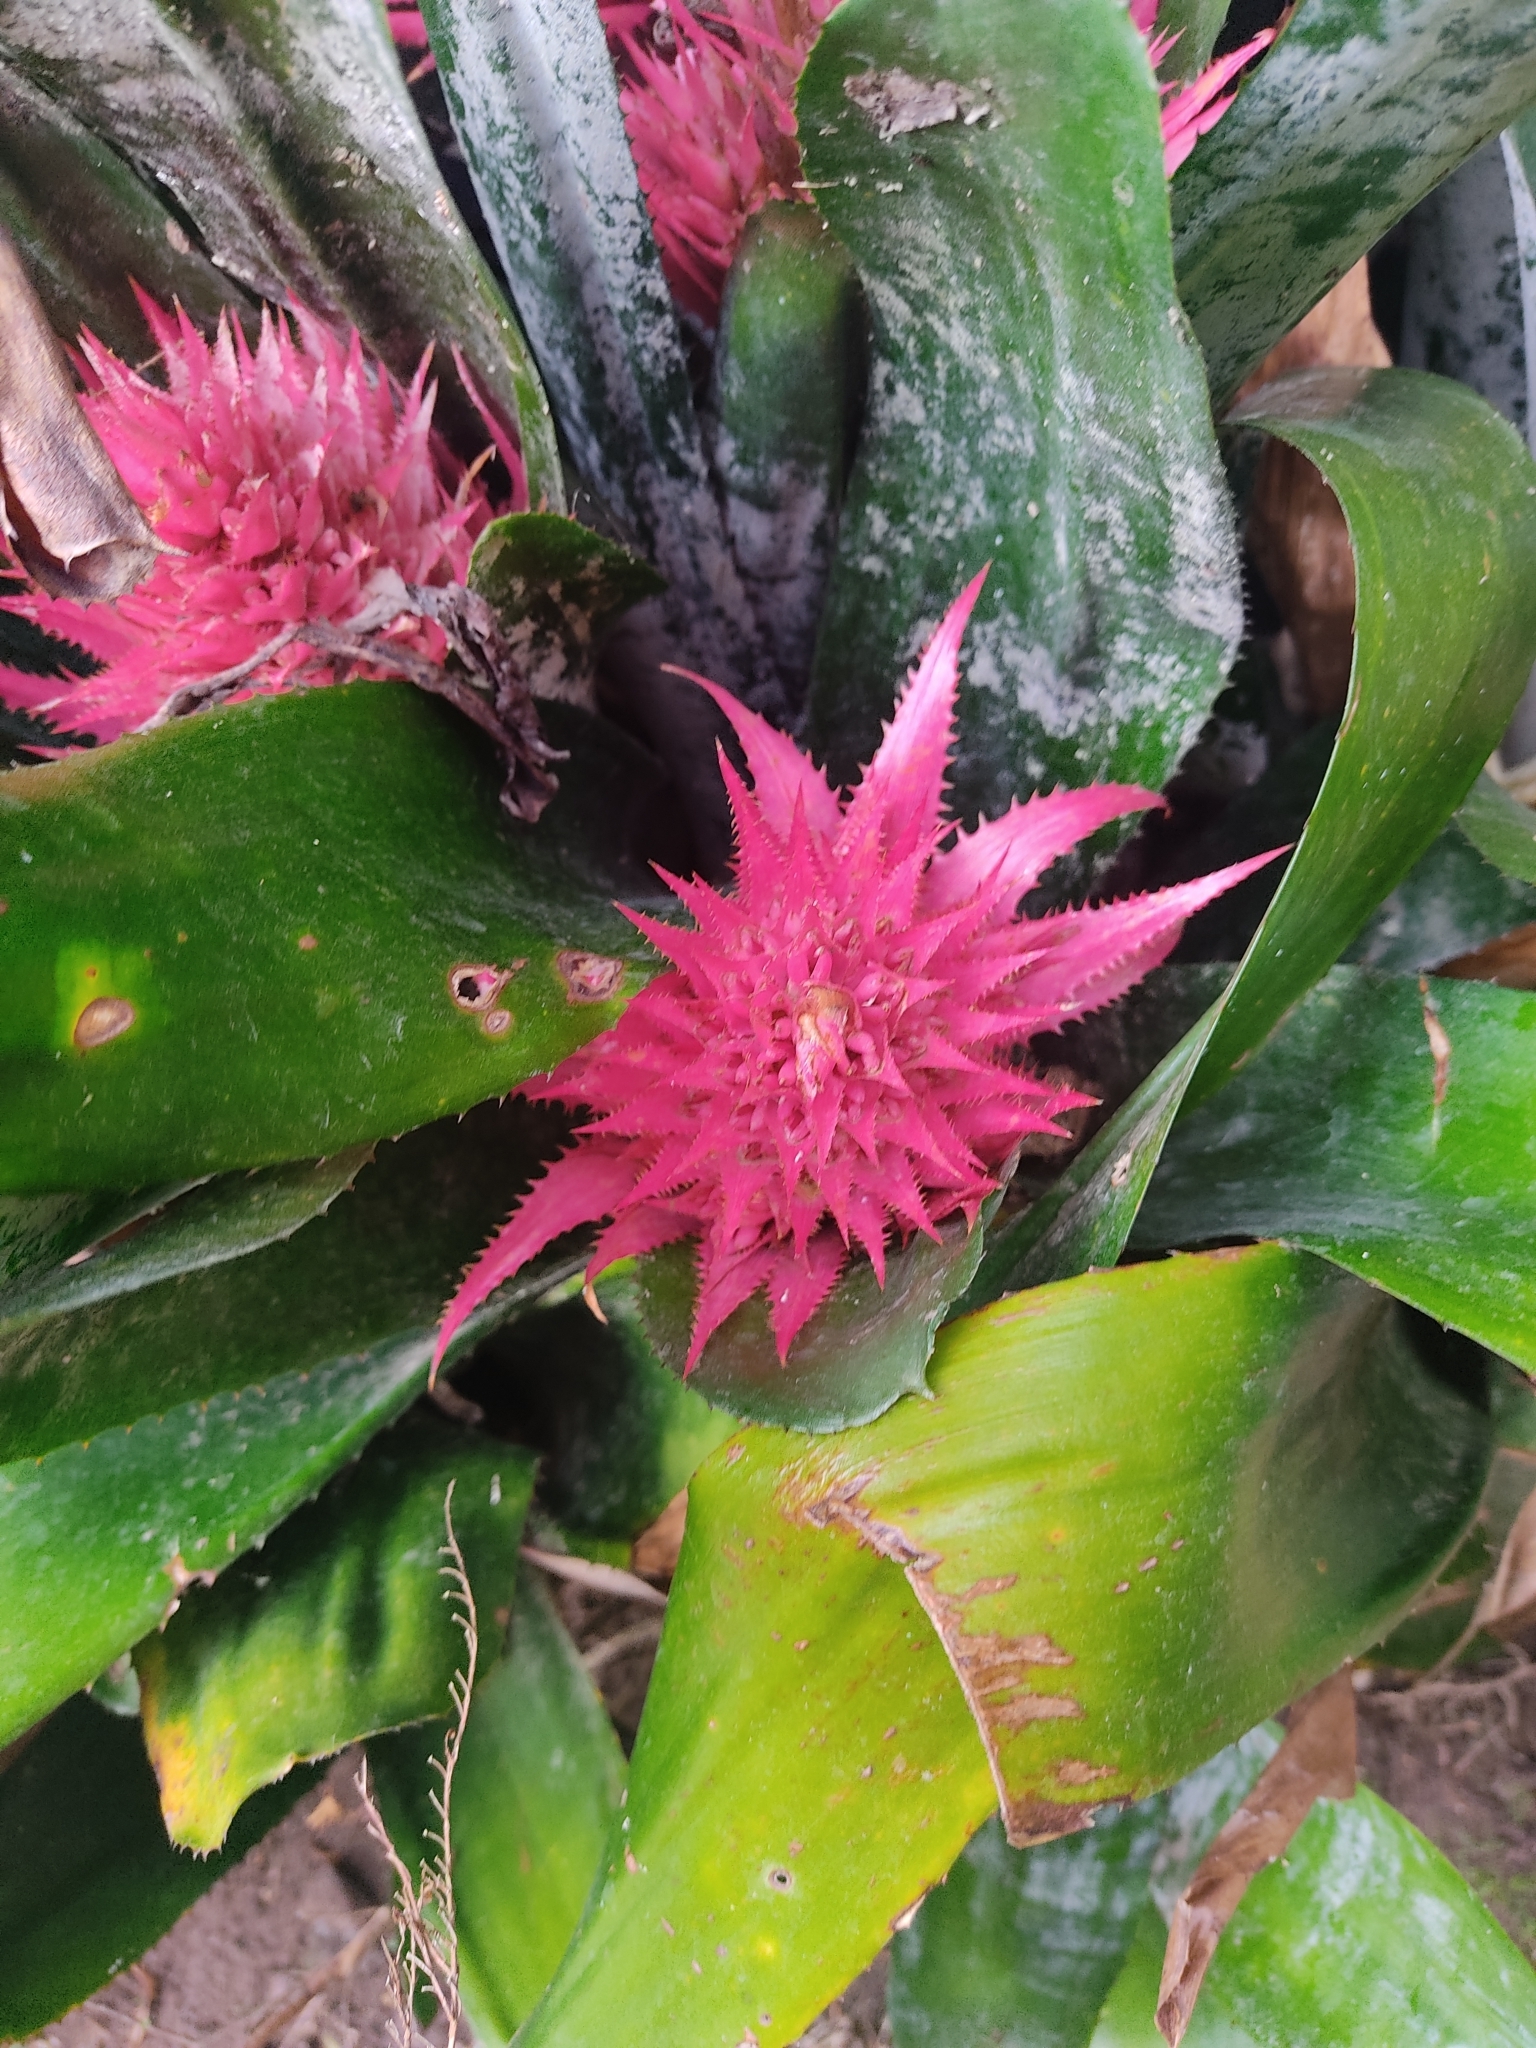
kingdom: Plantae
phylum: Tracheophyta
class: Liliopsida
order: Poales
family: Bromeliaceae
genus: Aechmea
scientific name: Aechmea fasciata
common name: Urnplant
